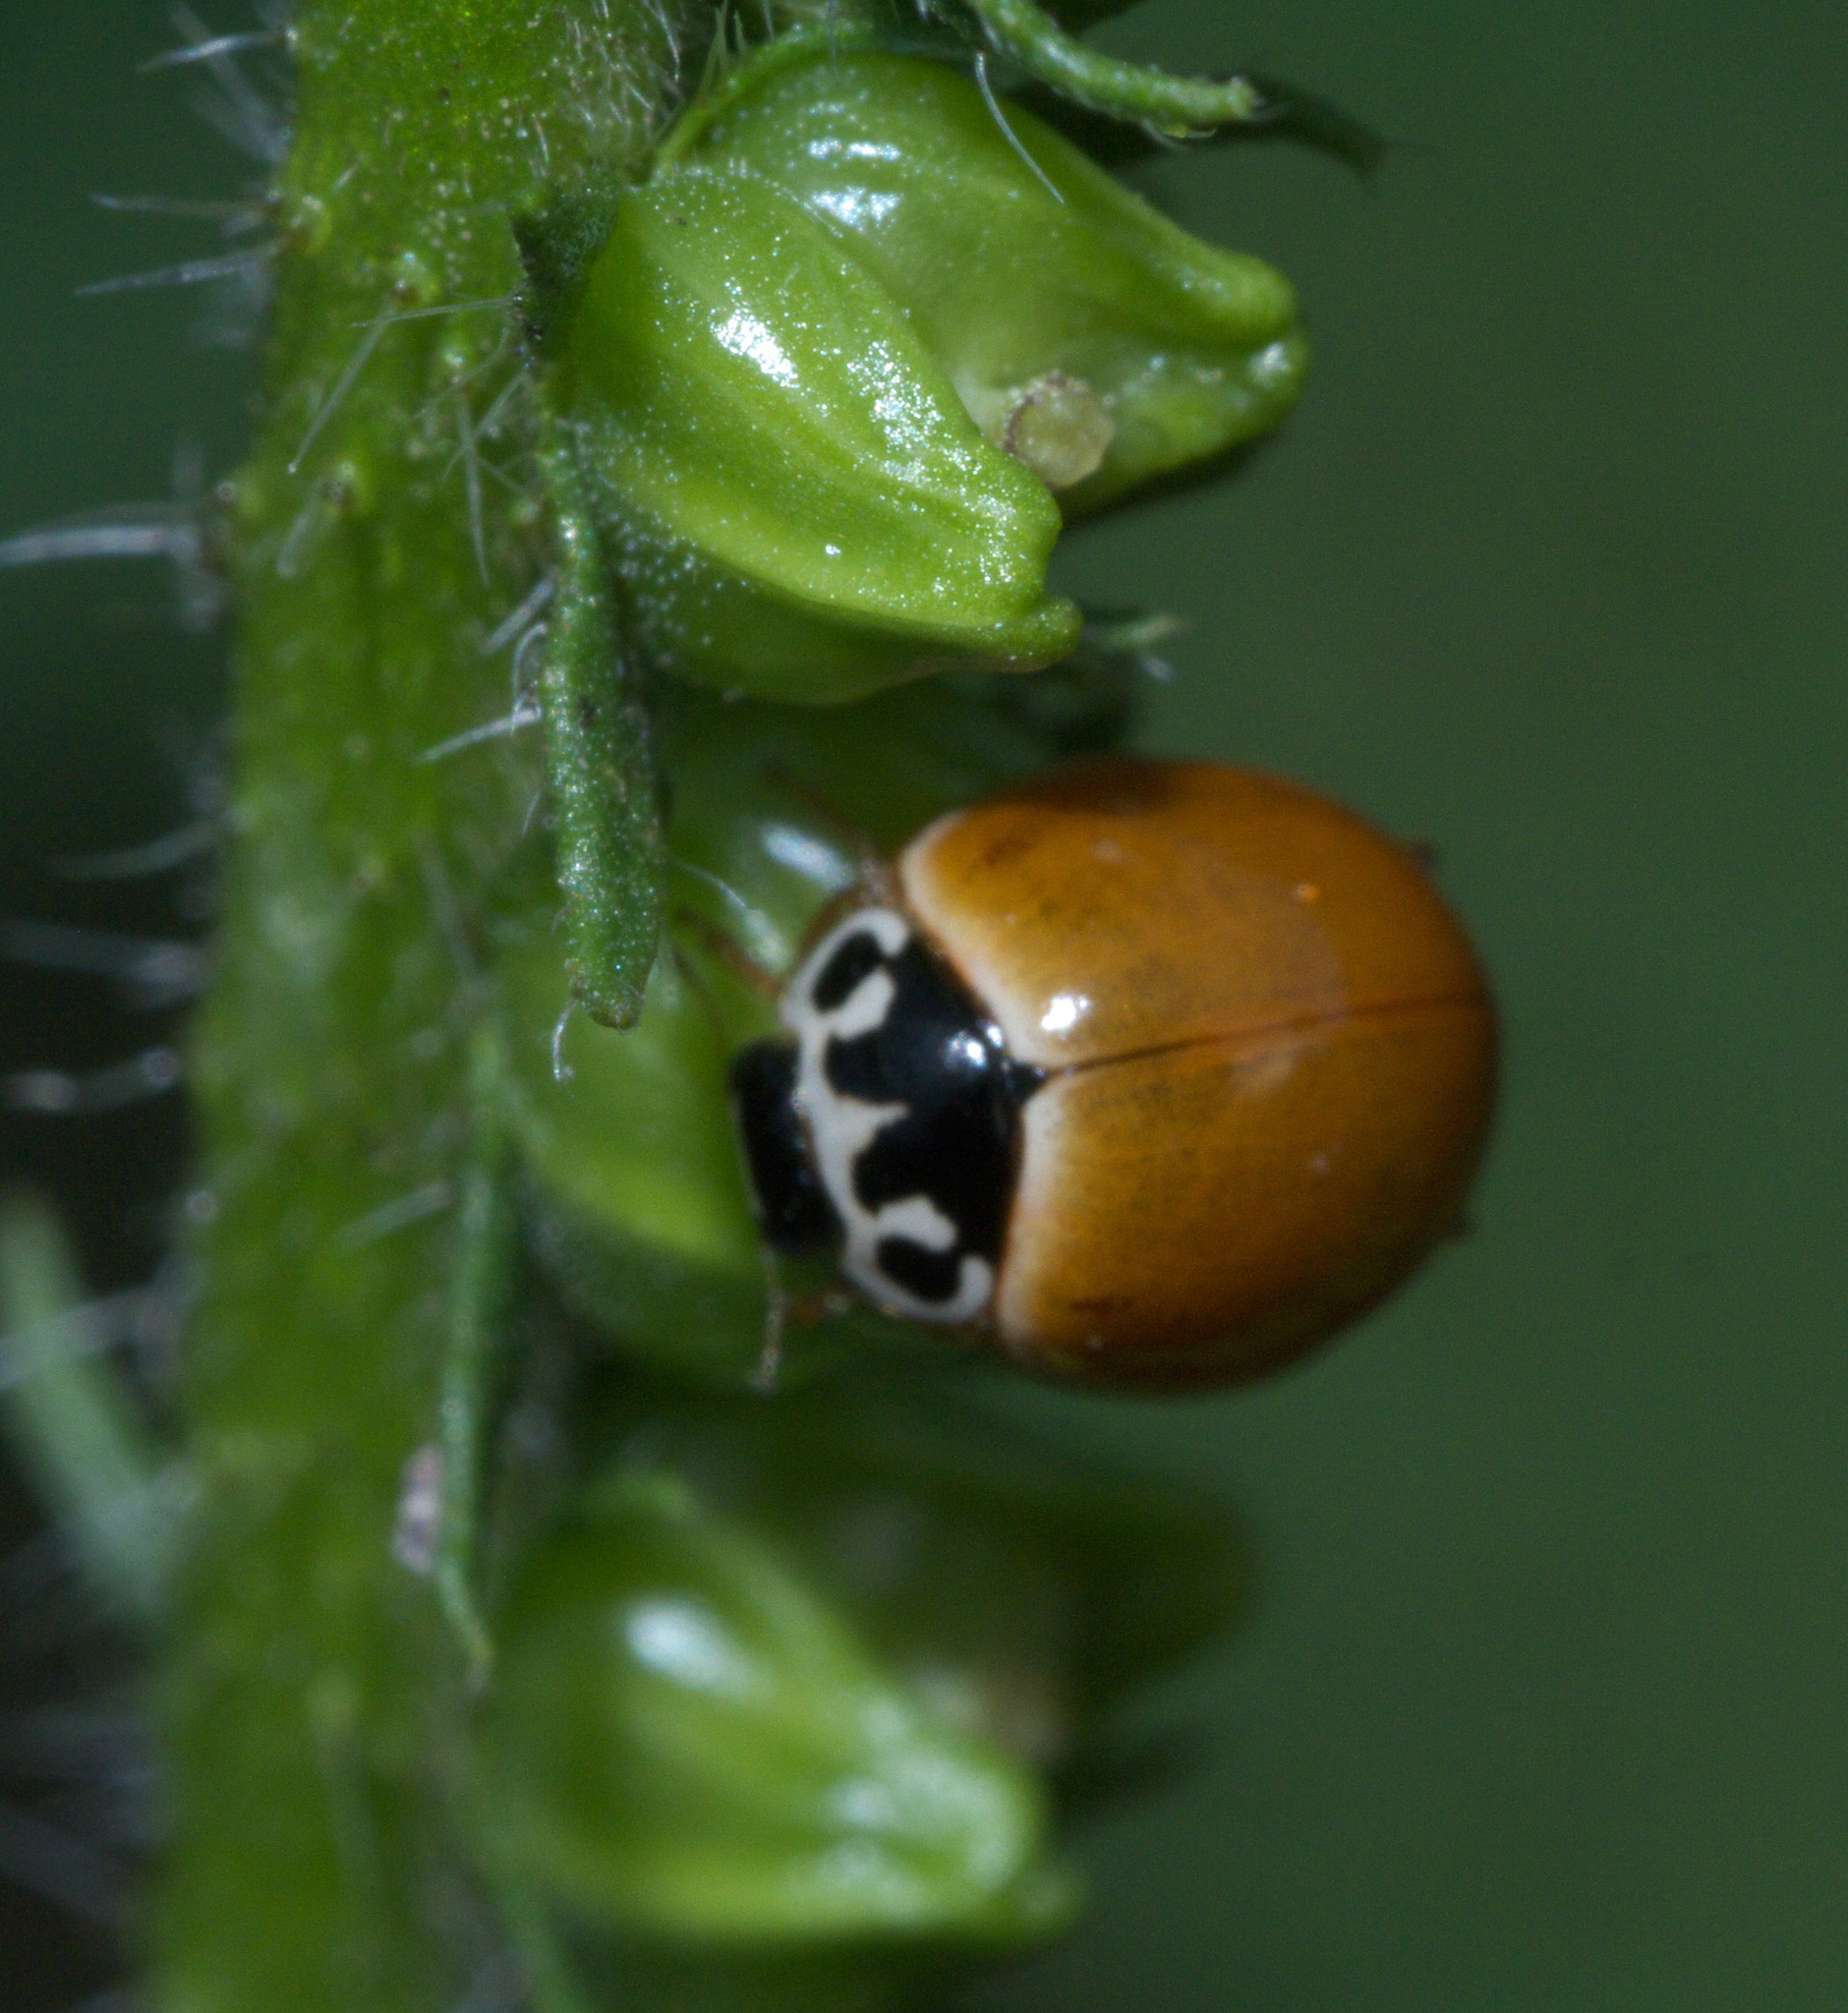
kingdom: Animalia
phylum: Arthropoda
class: Insecta
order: Coleoptera
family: Coccinellidae
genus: Cycloneda
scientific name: Cycloneda munda
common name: Polished lady beetle
